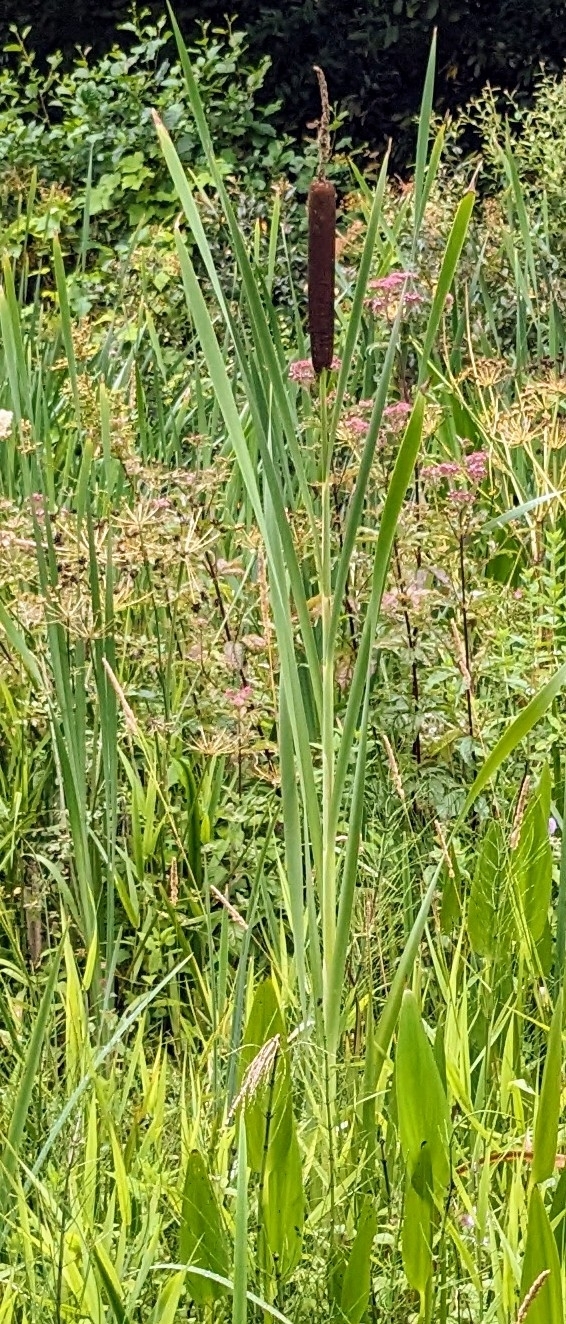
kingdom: Plantae
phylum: Tracheophyta
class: Liliopsida
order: Poales
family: Typhaceae
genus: Typha
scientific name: Typha latifolia
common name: Broadleaf cattail
